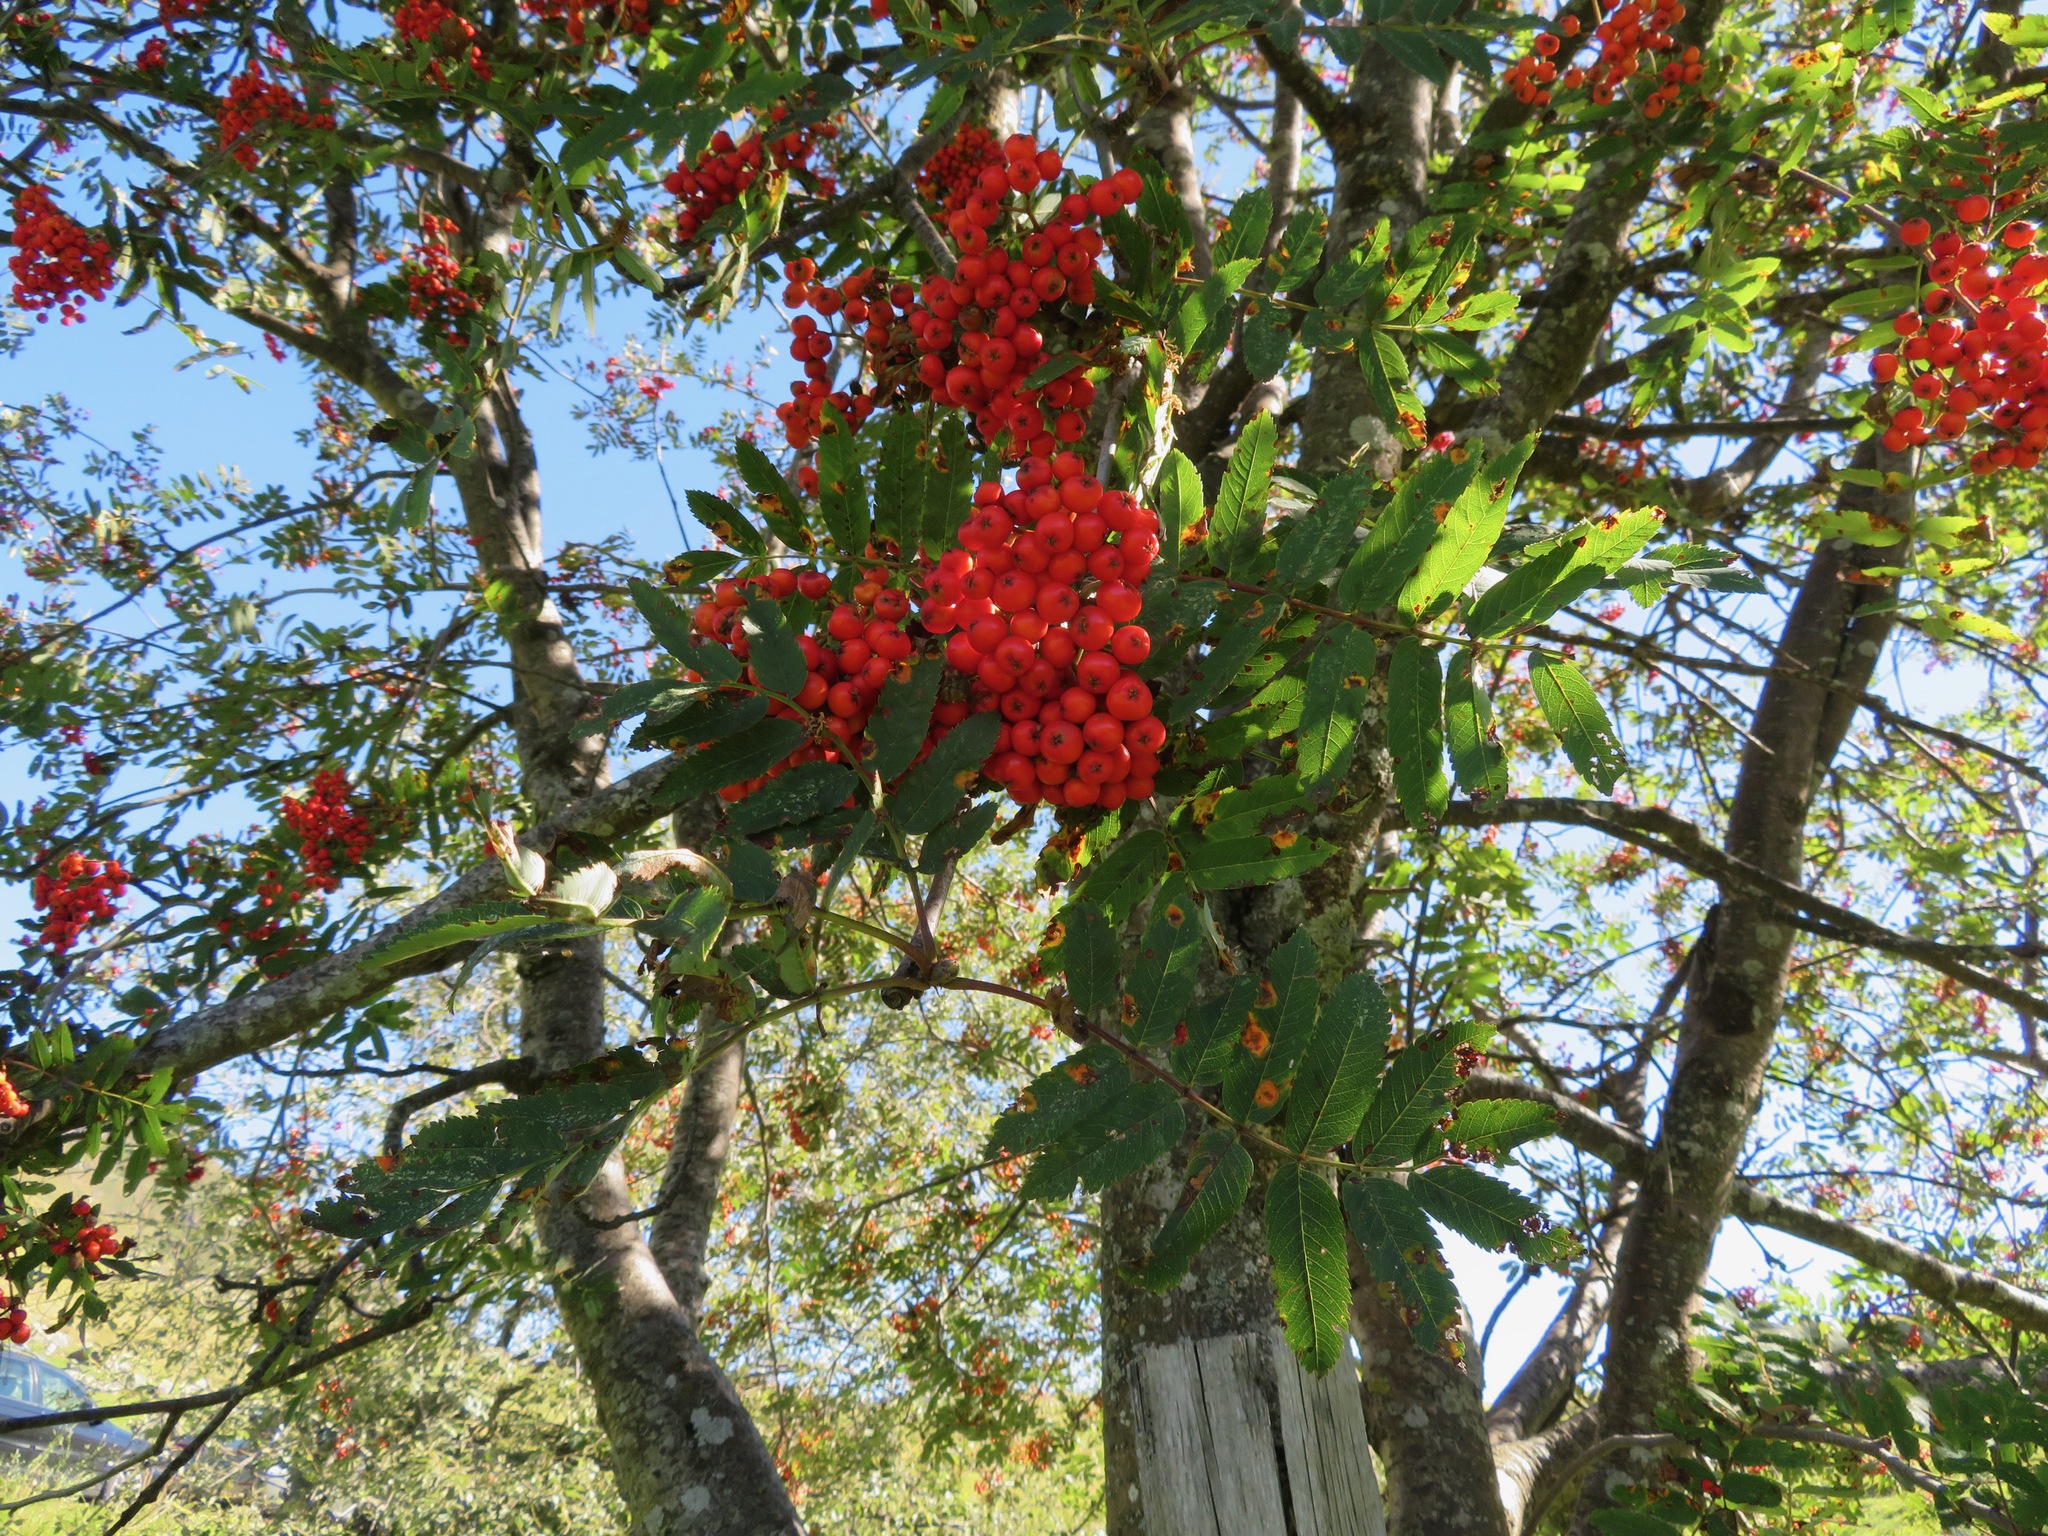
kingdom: Plantae
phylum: Tracheophyta
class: Magnoliopsida
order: Rosales
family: Rosaceae
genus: Sorbus
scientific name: Sorbus aucuparia
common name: Rowan
